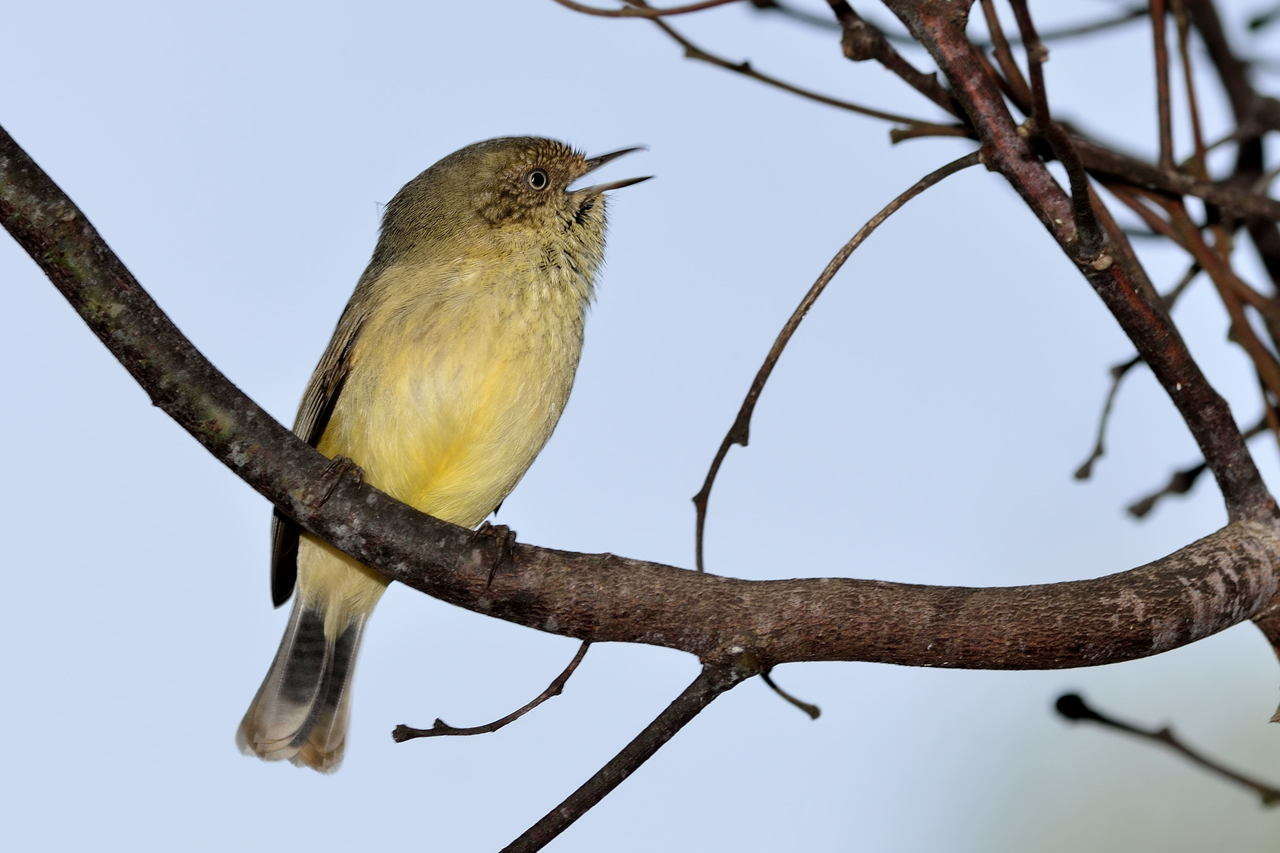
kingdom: Animalia
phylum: Chordata
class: Aves
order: Passeriformes
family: Acanthizidae
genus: Acanthiza
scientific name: Acanthiza reguloides
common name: Buff-rumped thornbill
